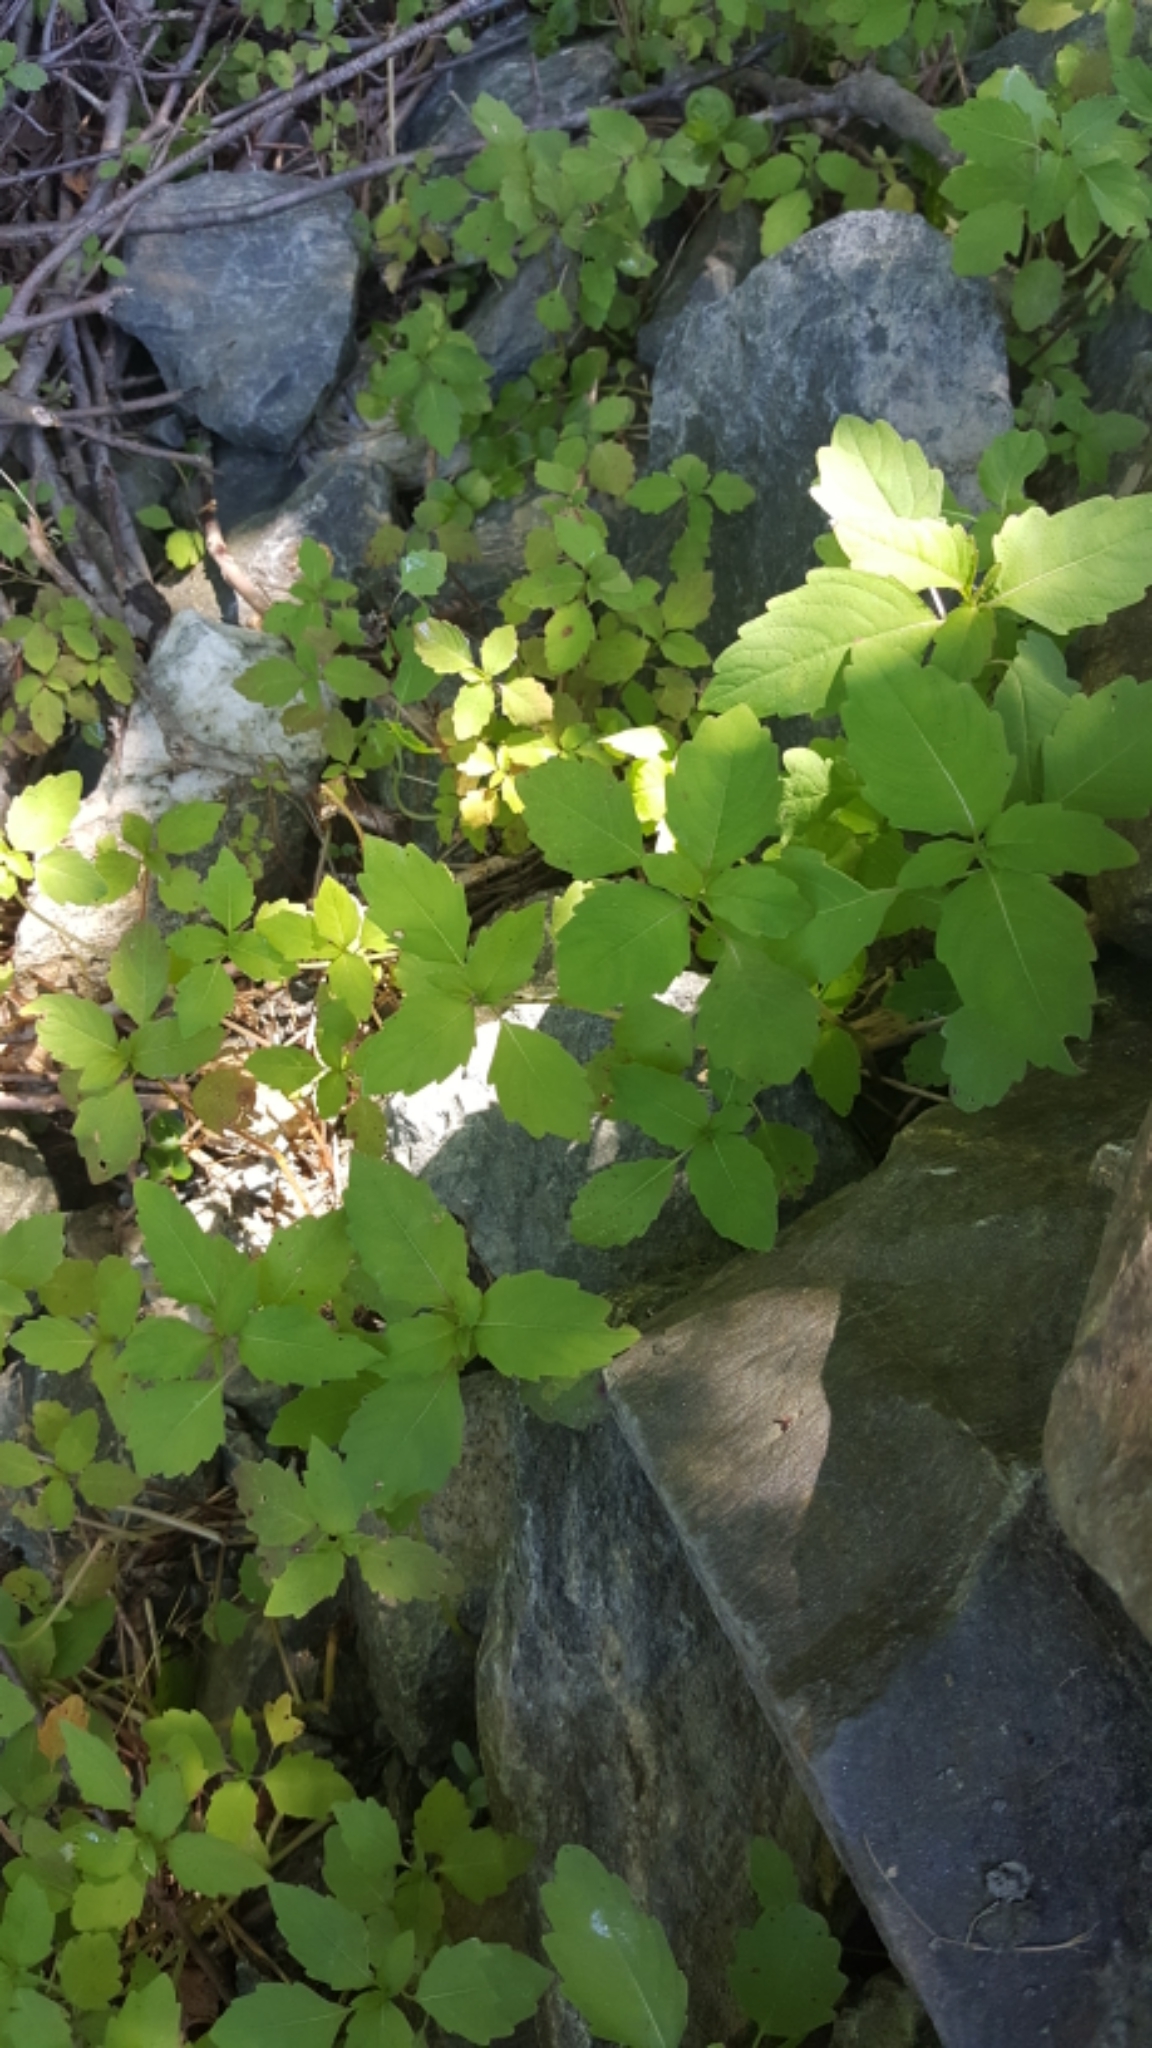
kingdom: Plantae
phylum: Tracheophyta
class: Magnoliopsida
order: Ericales
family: Balsaminaceae
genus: Impatiens
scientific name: Impatiens capensis
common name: Orange balsam
